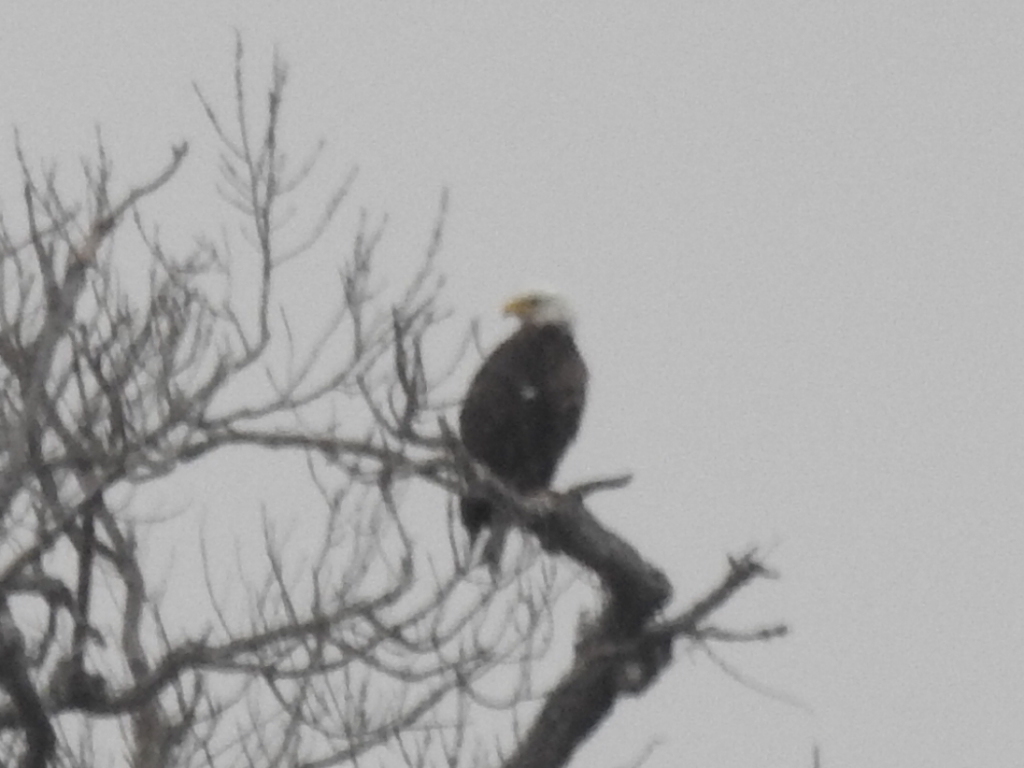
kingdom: Animalia
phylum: Chordata
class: Aves
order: Accipitriformes
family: Accipitridae
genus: Haliaeetus
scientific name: Haliaeetus leucocephalus
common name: Bald eagle
